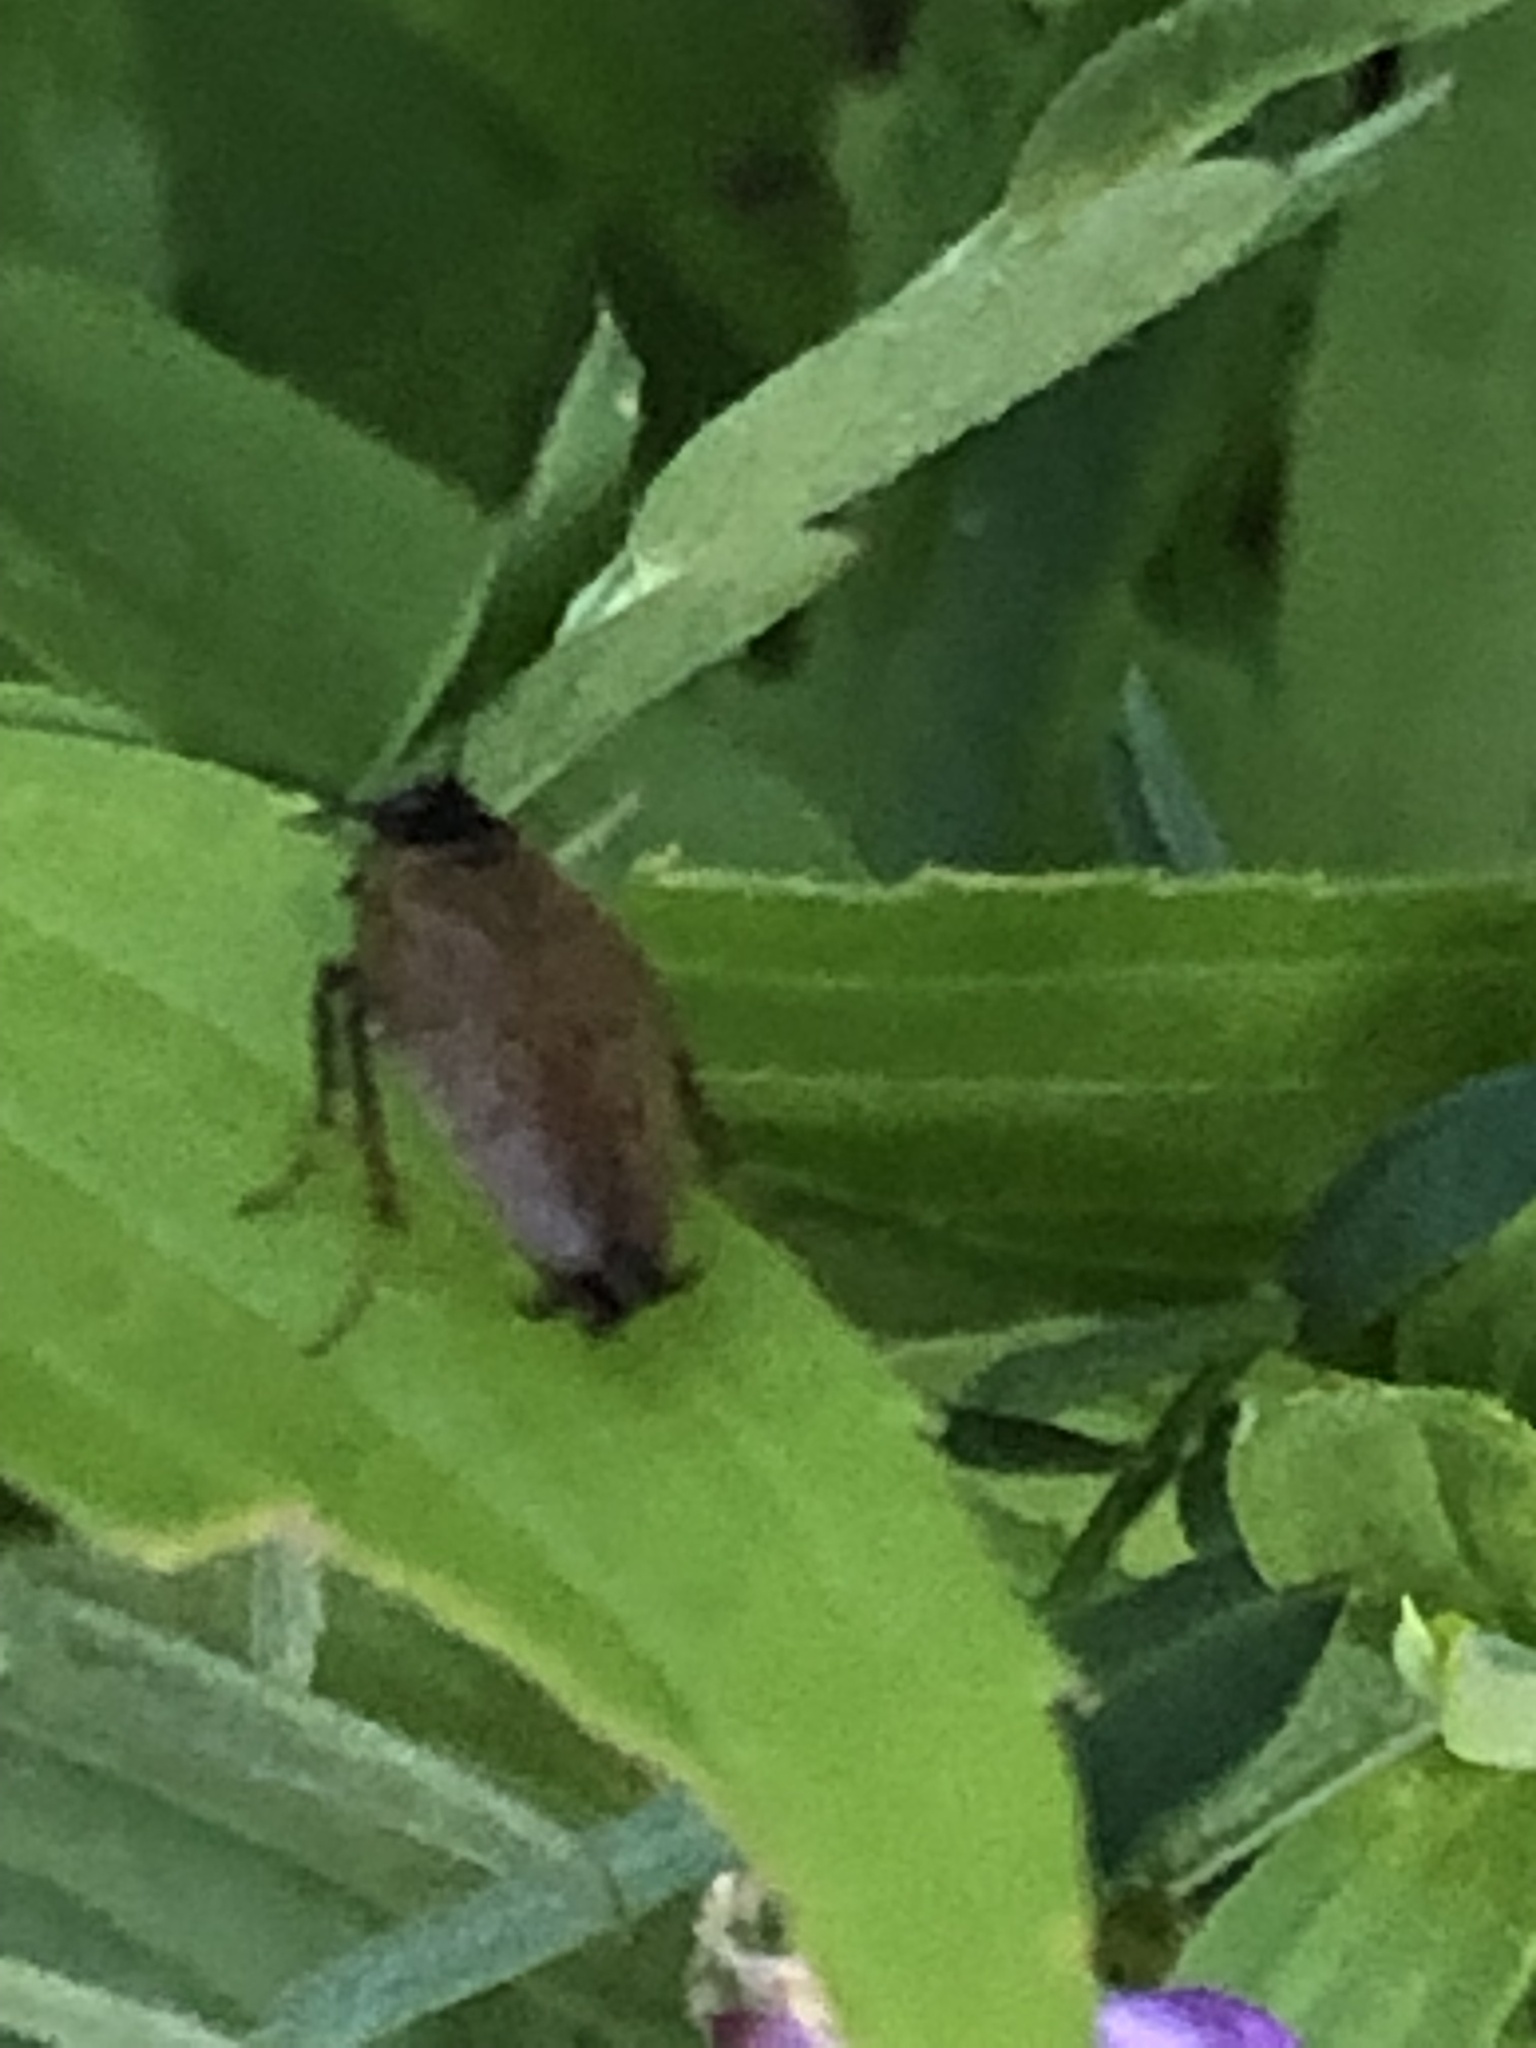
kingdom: Animalia
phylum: Arthropoda
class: Insecta
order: Blattodea
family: Ectobiidae
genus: Ectobius
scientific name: Ectobius lapponicus
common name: Dusky cockroach
